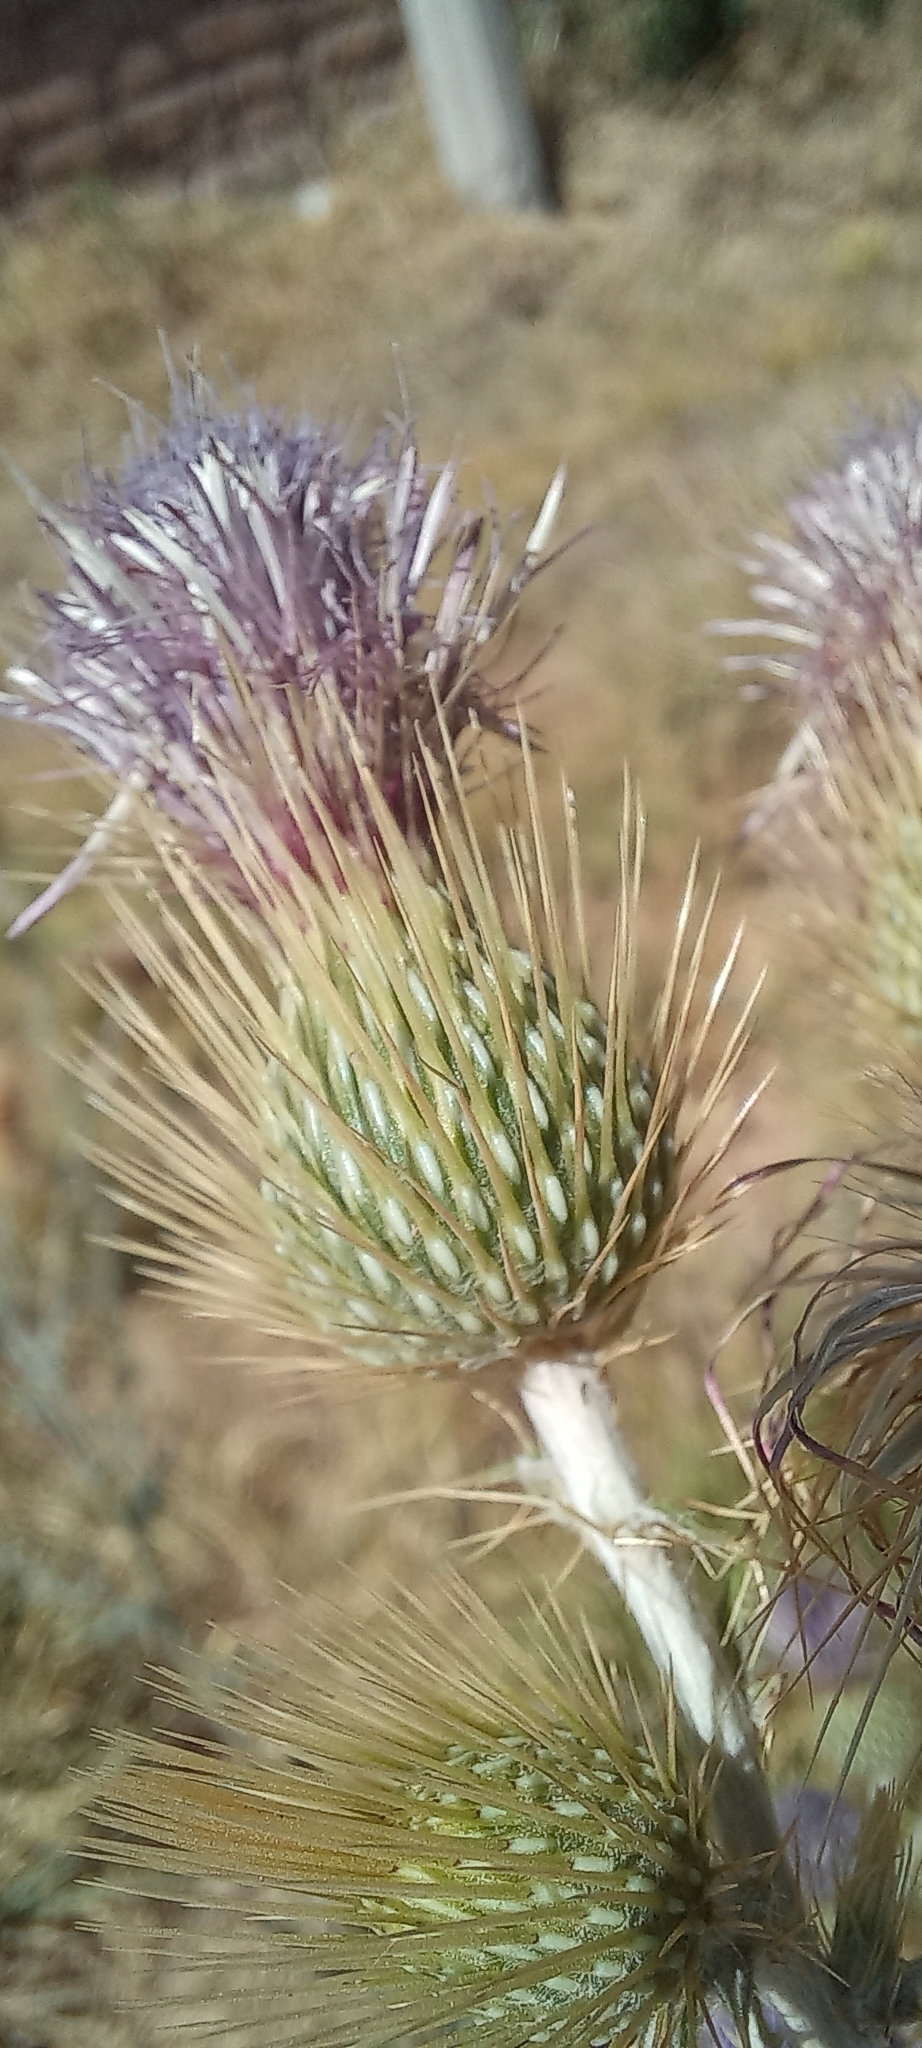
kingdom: Plantae
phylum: Tracheophyta
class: Magnoliopsida
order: Asterales
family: Asteraceae
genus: Cirsium
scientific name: Cirsium rhaphilepis
